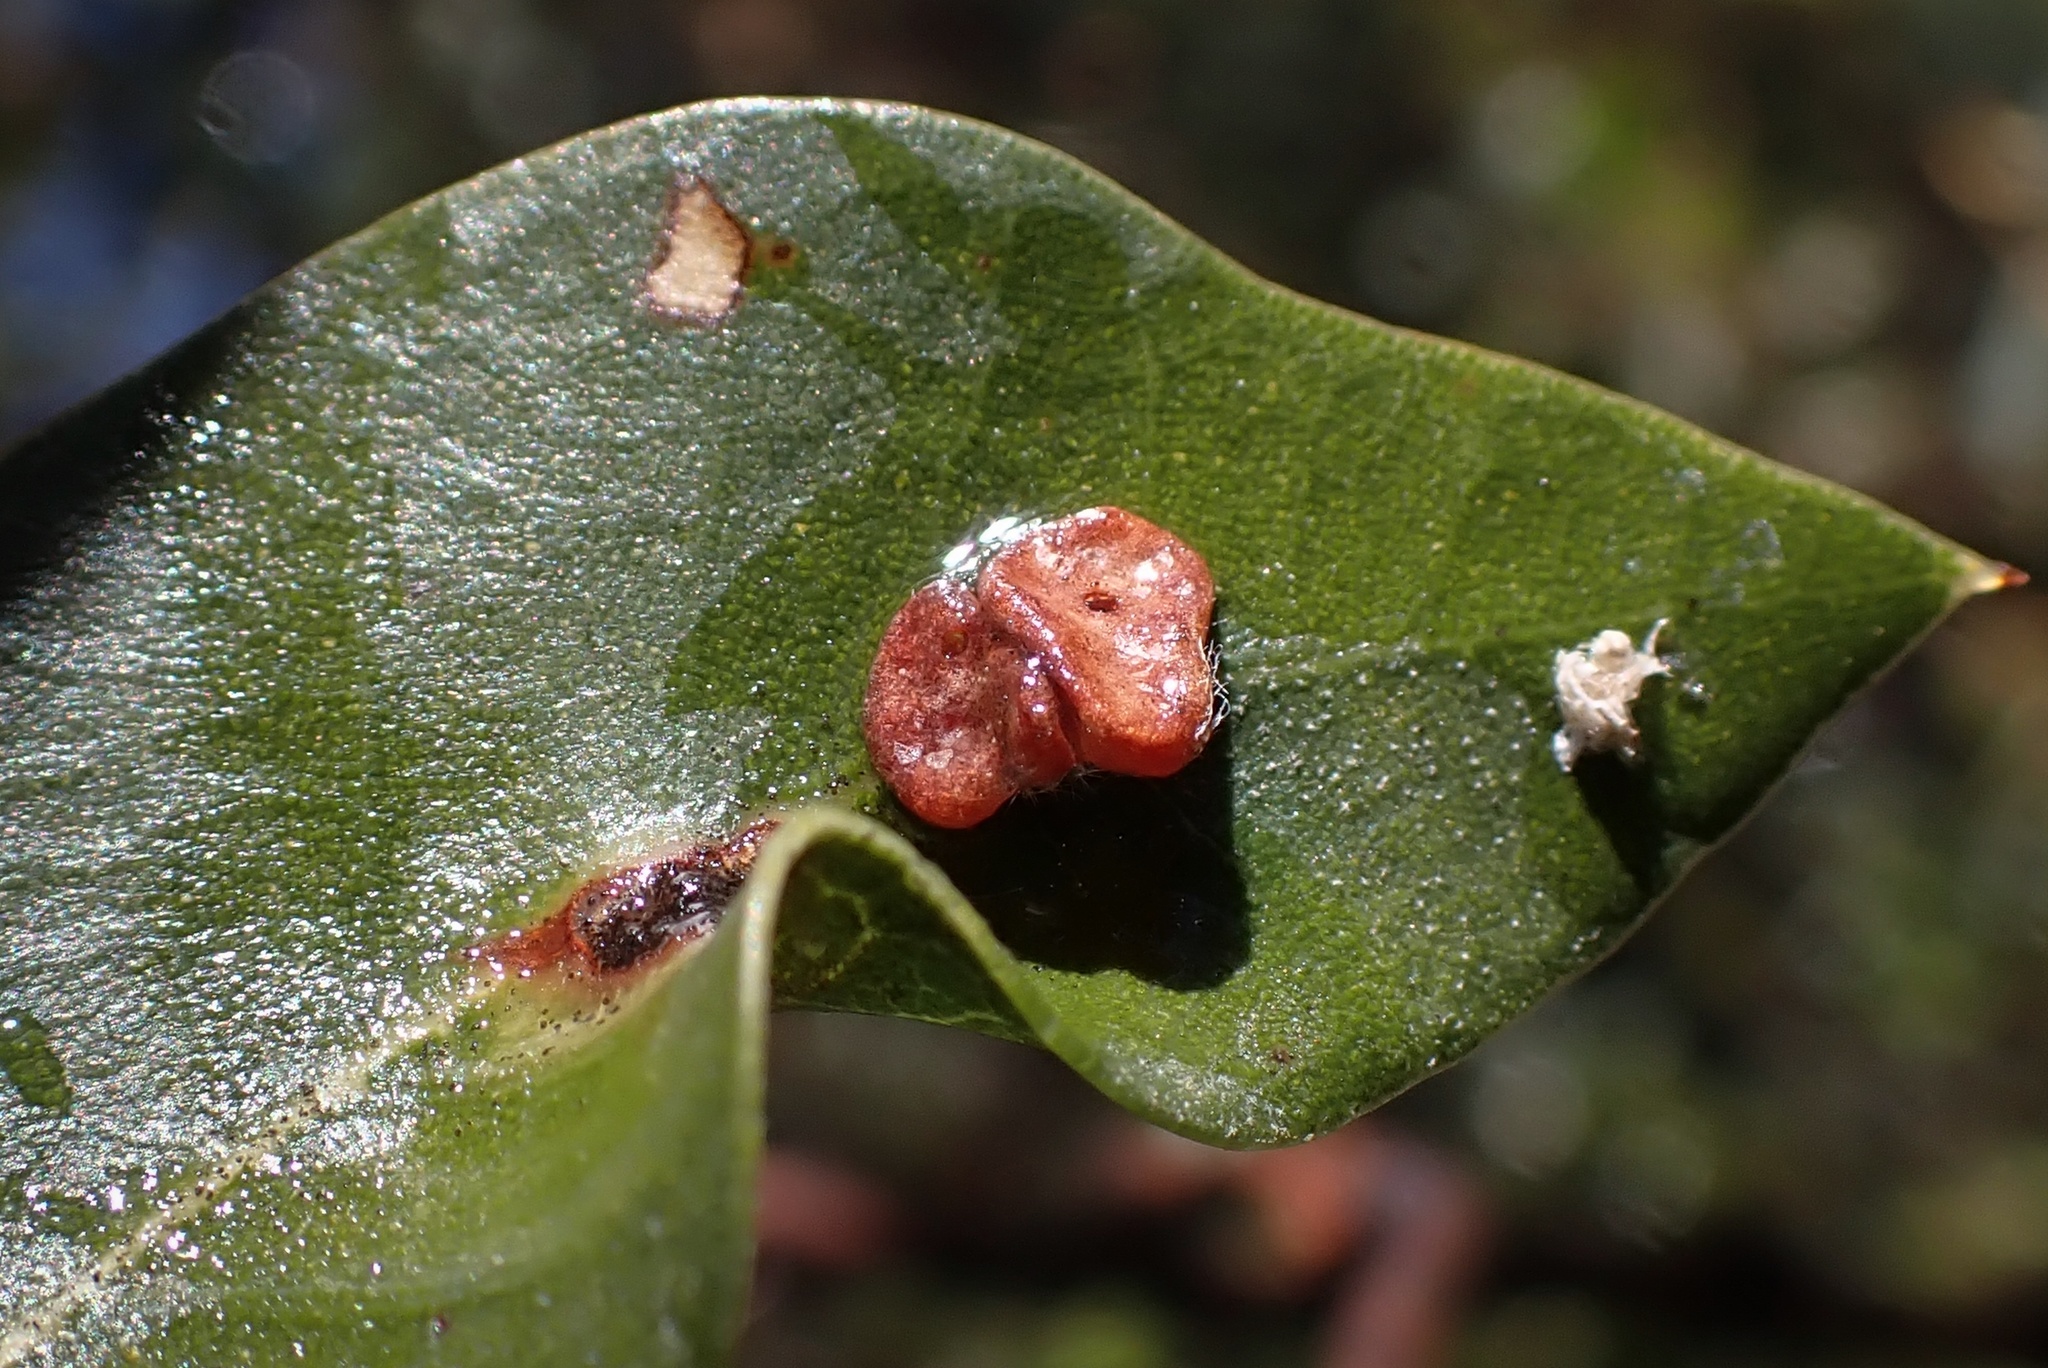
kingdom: Animalia
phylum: Arthropoda
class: Insecta
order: Hymenoptera
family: Cynipidae
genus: Andricus
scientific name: Andricus
